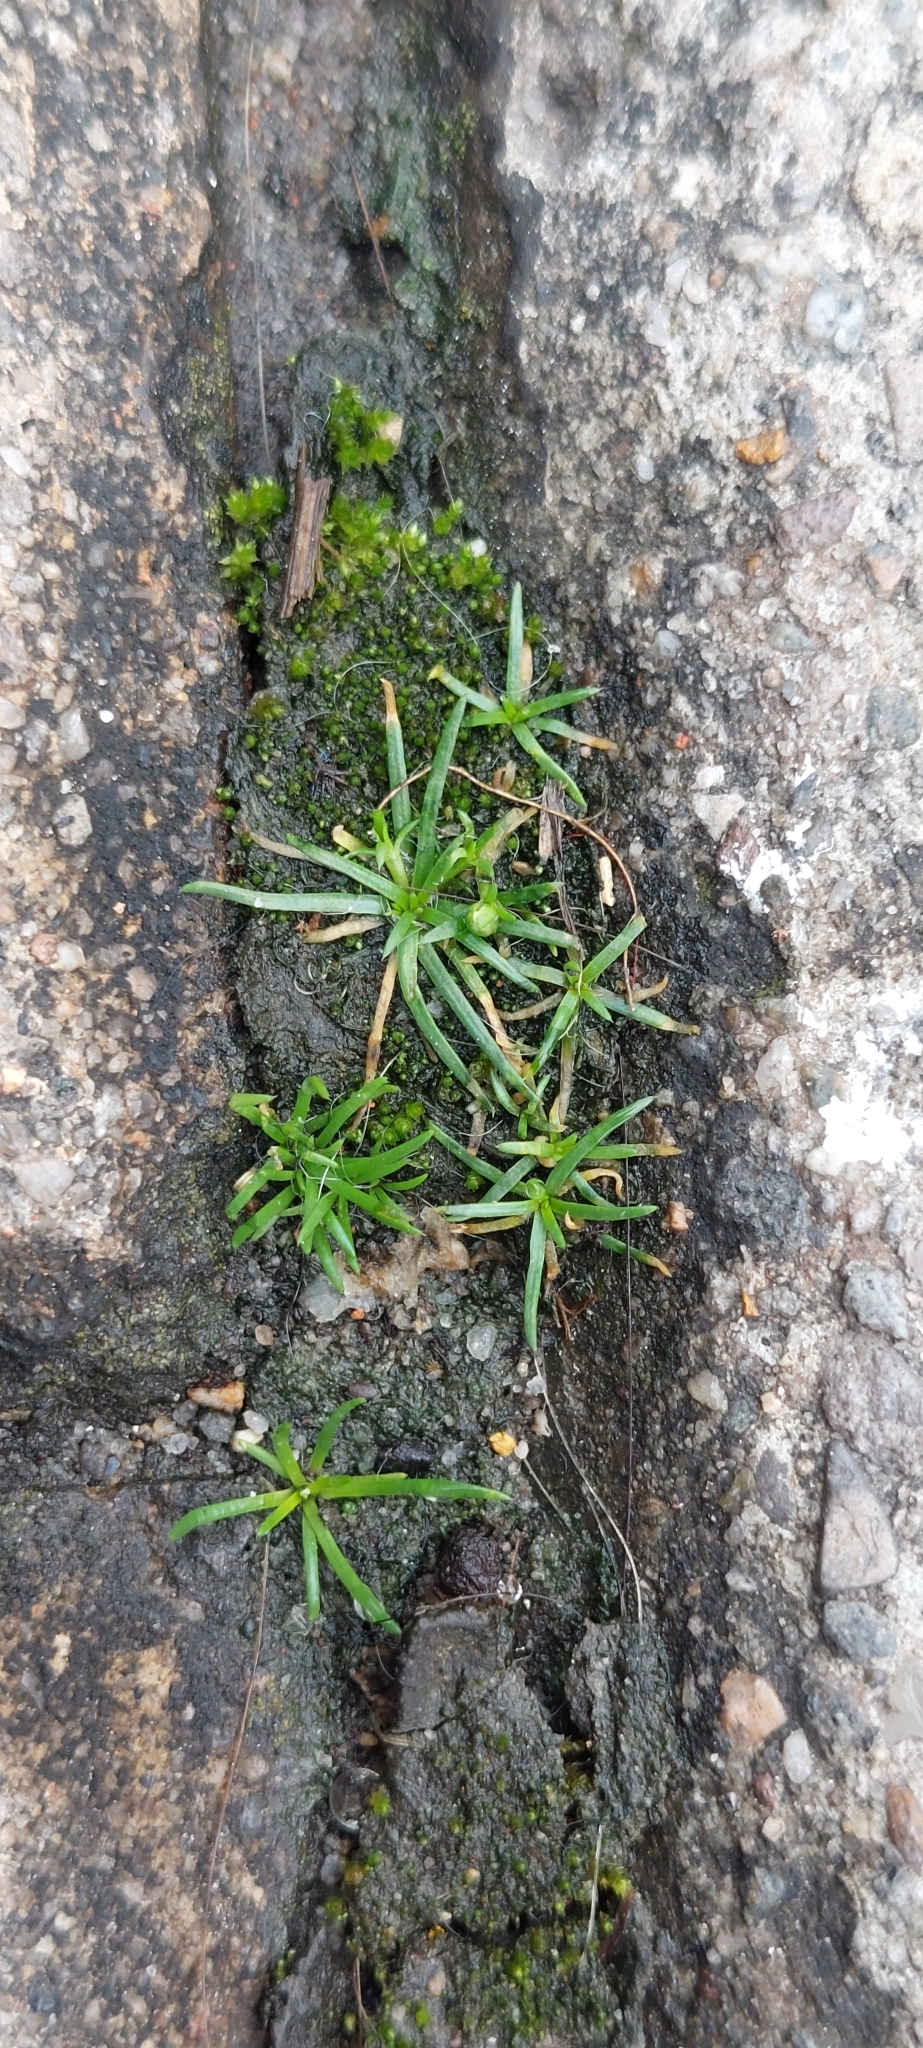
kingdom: Plantae
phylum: Tracheophyta
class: Magnoliopsida
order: Caryophyllales
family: Caryophyllaceae
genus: Sagina
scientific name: Sagina procumbens
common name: Procumbent pearlwort
